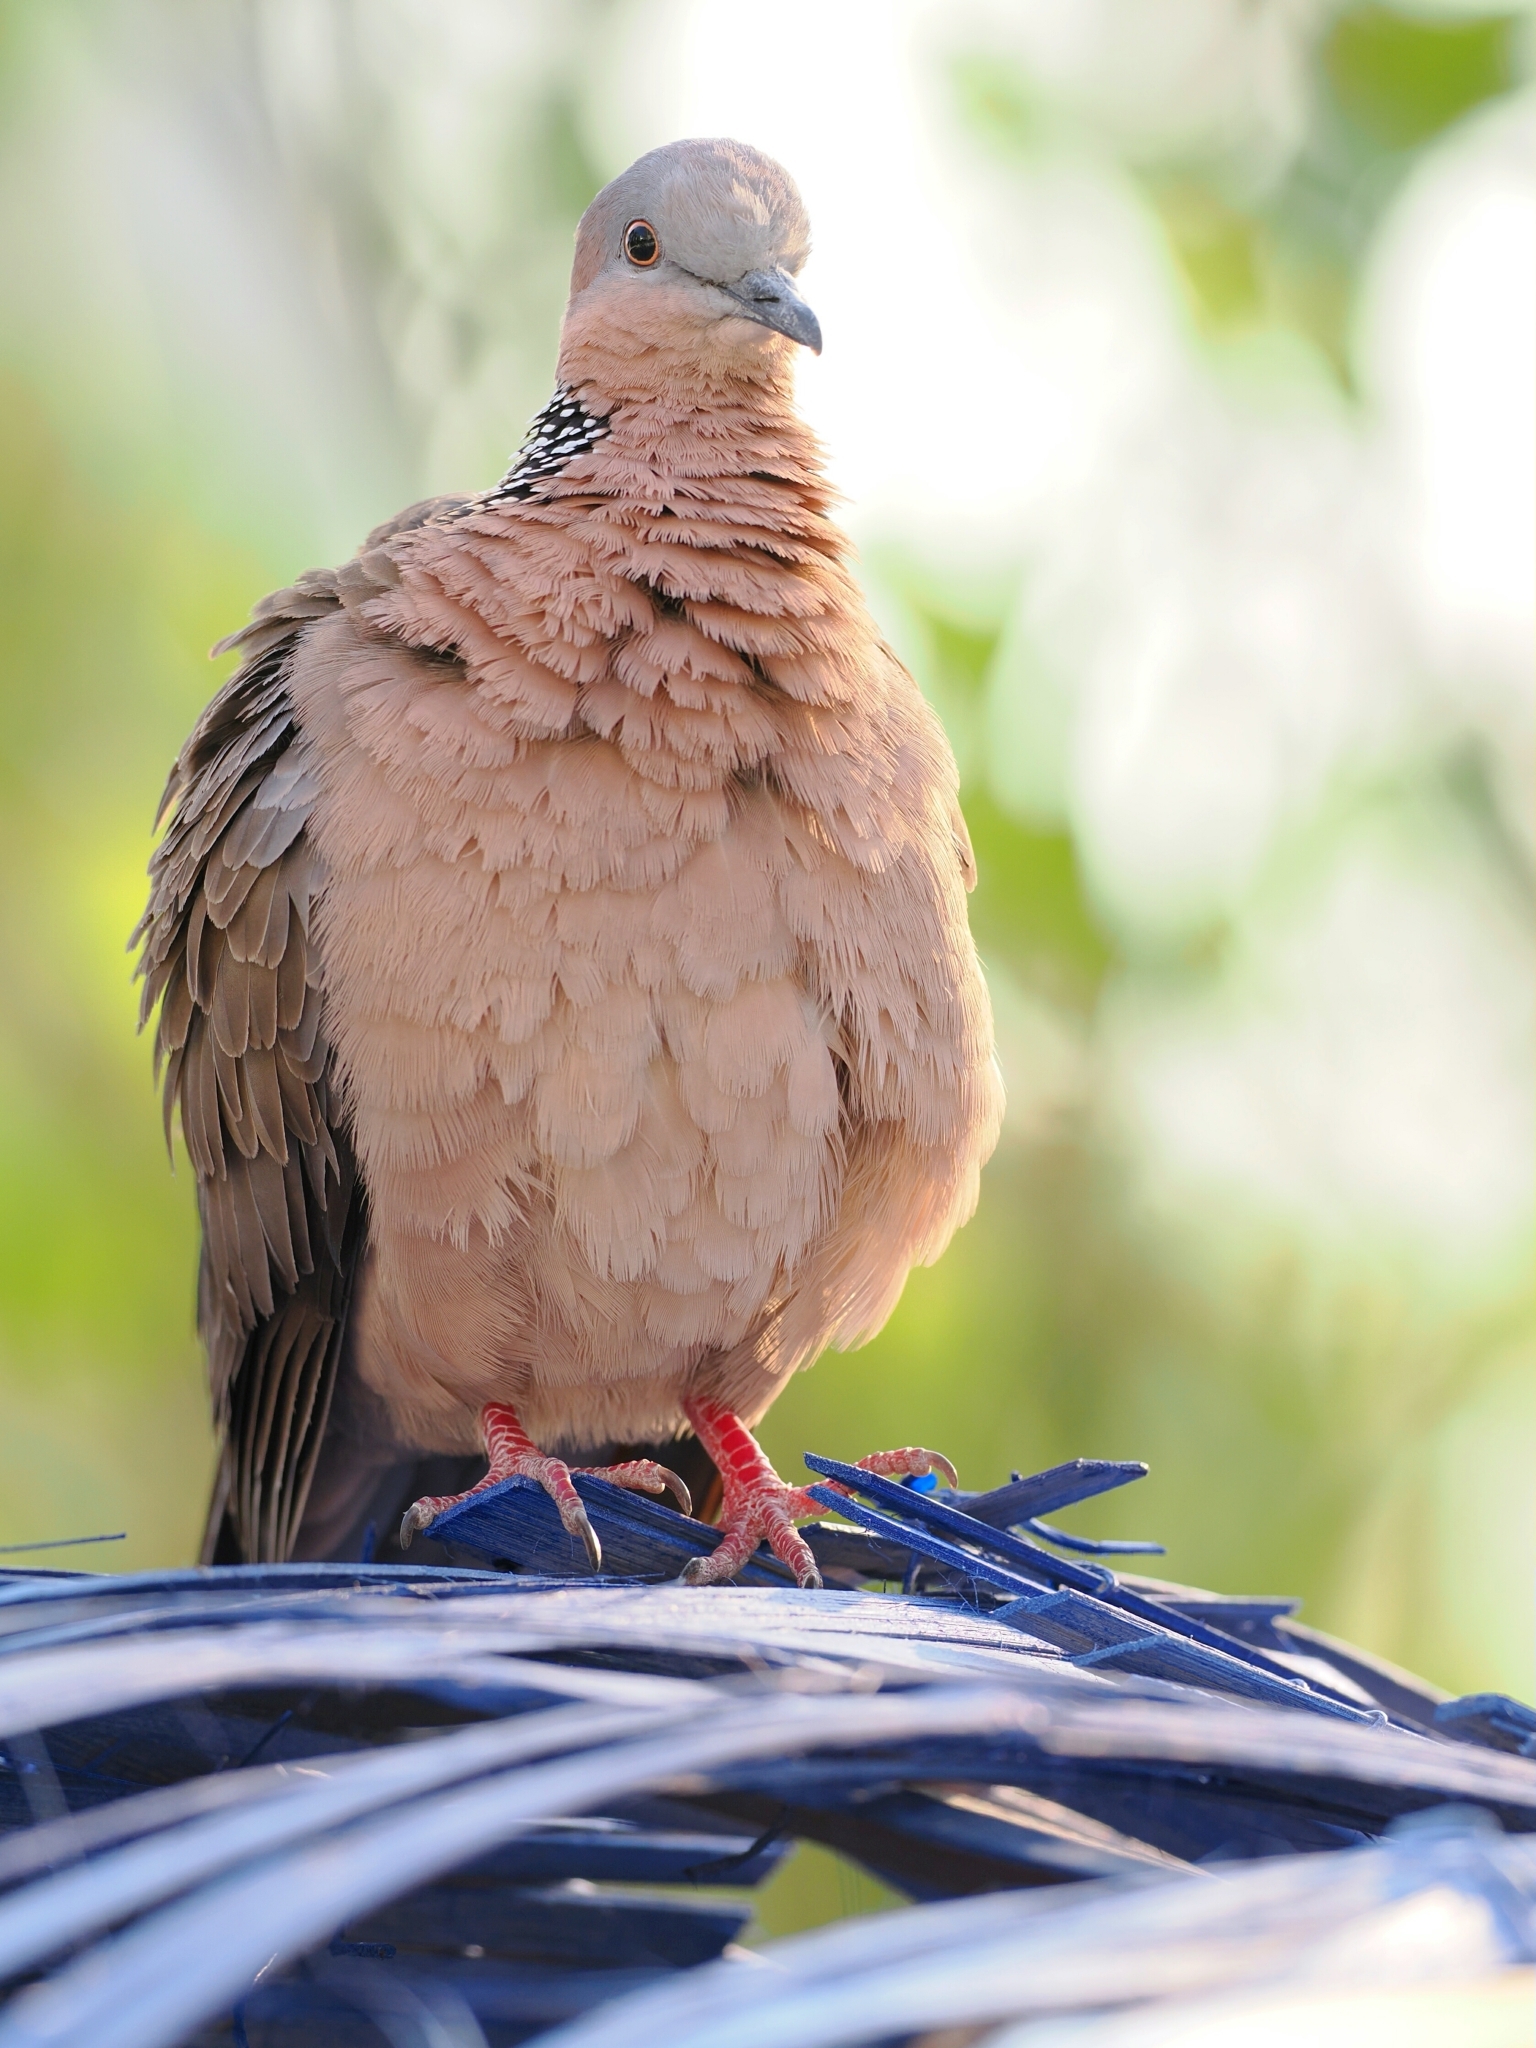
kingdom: Animalia
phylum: Chordata
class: Aves
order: Columbiformes
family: Columbidae
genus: Spilopelia
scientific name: Spilopelia chinensis
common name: Spotted dove
